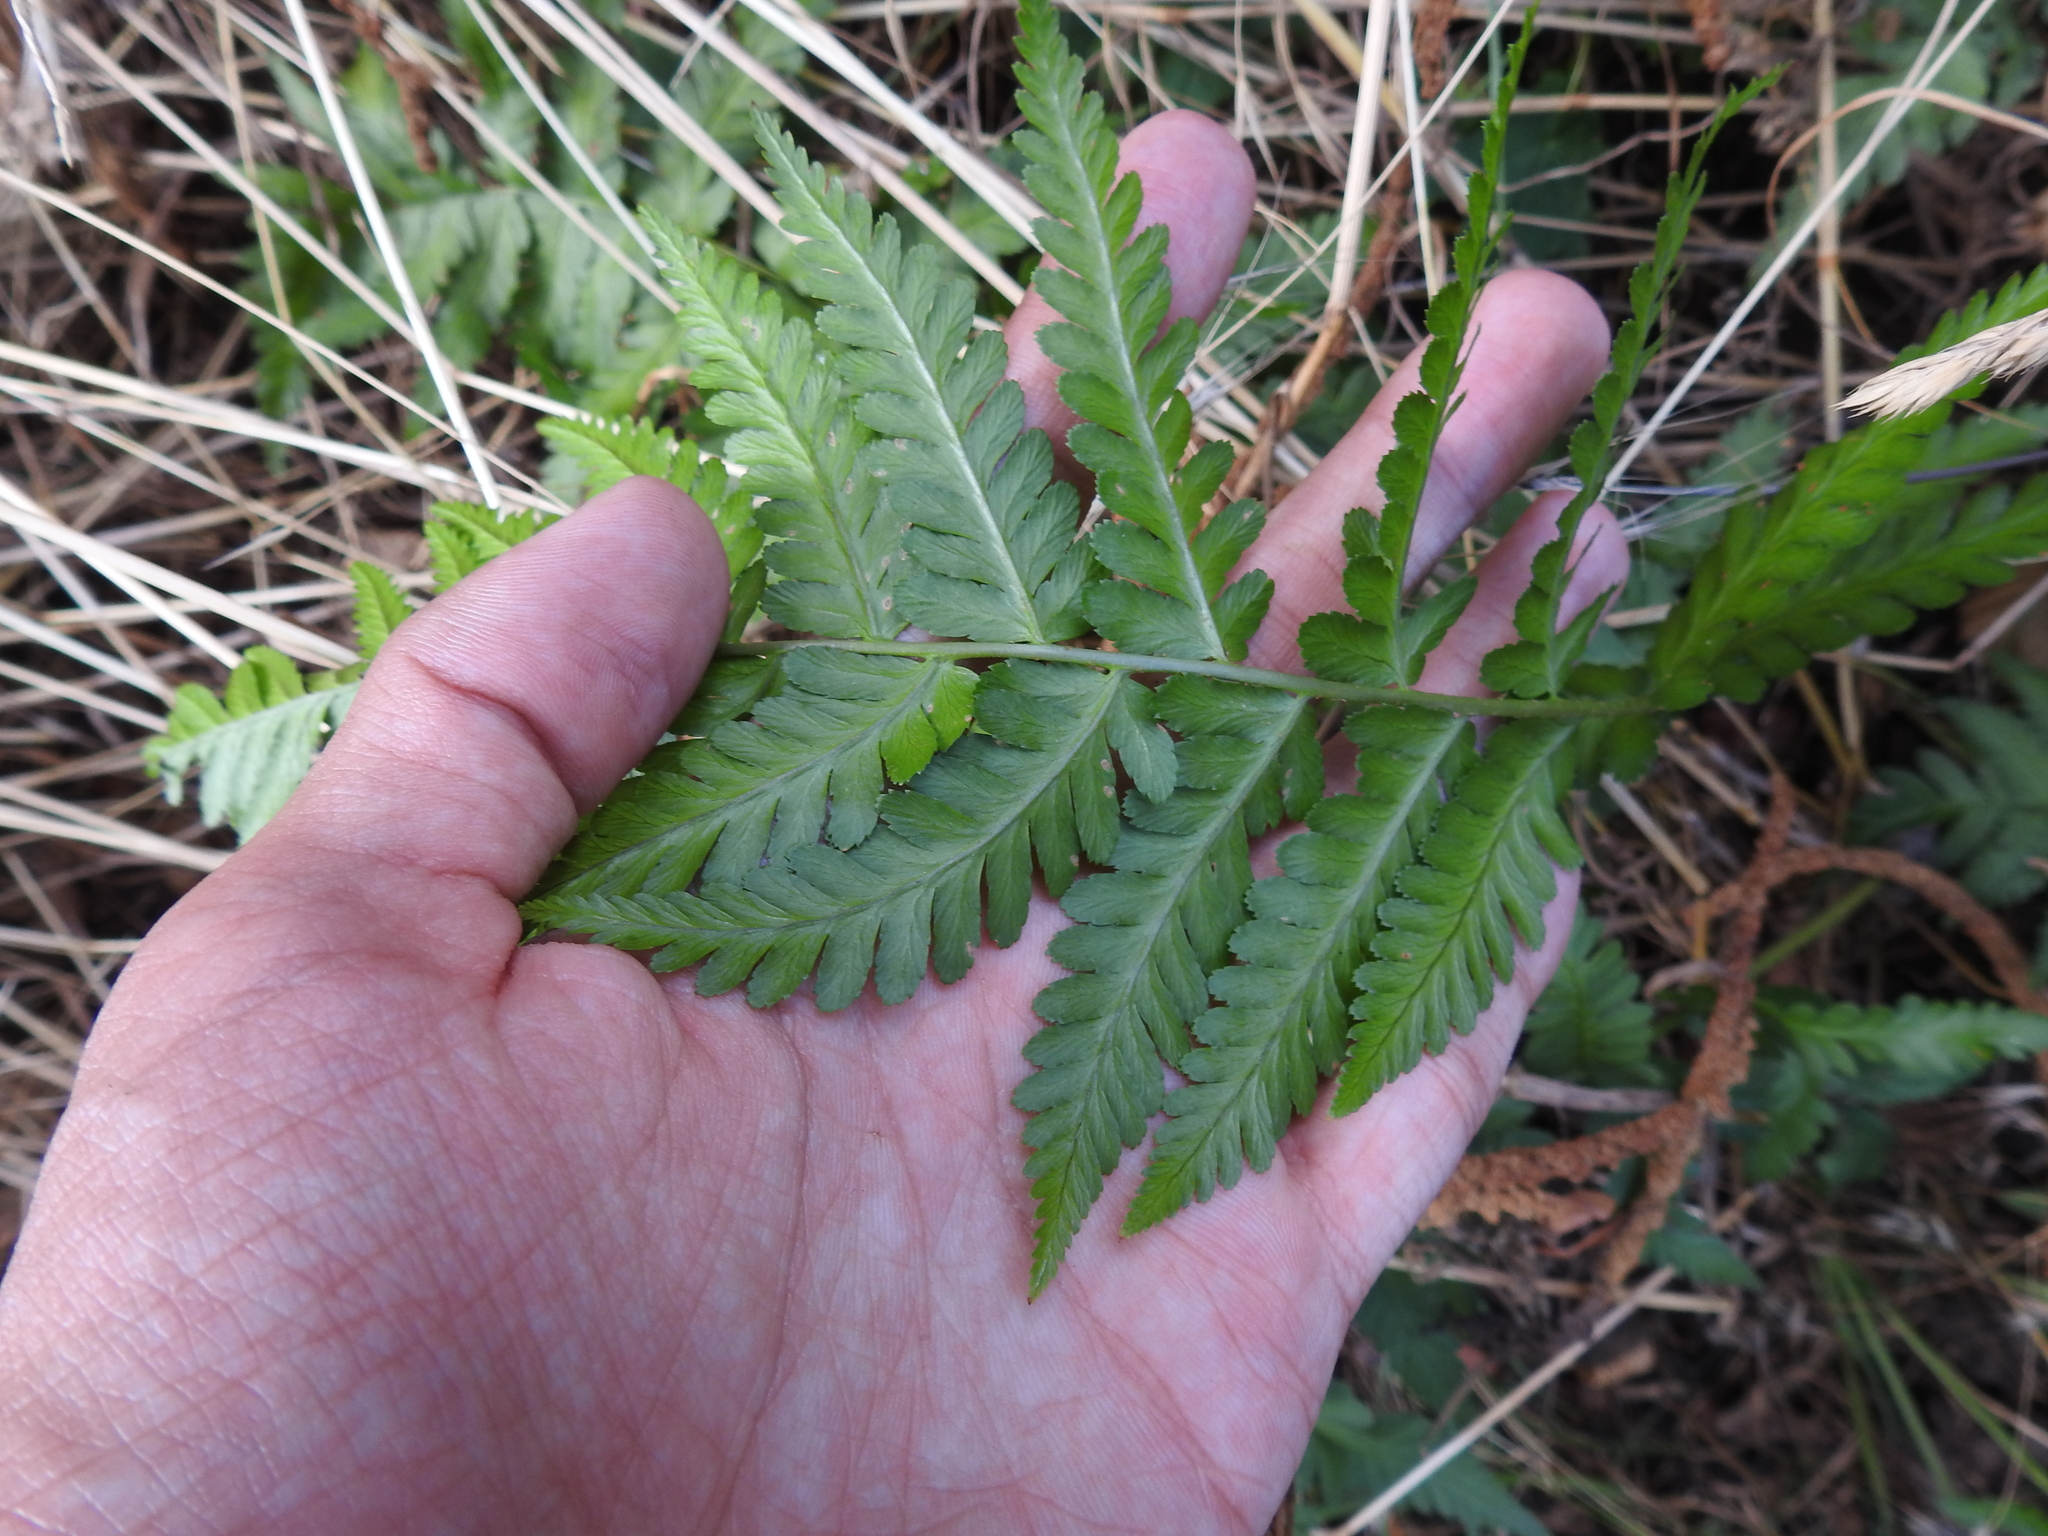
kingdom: Plantae
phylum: Tracheophyta
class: Polypodiopsida
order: Polypodiales
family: Dryopteridaceae
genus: Dryopteris
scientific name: Dryopteris filix-mas
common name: Male fern
